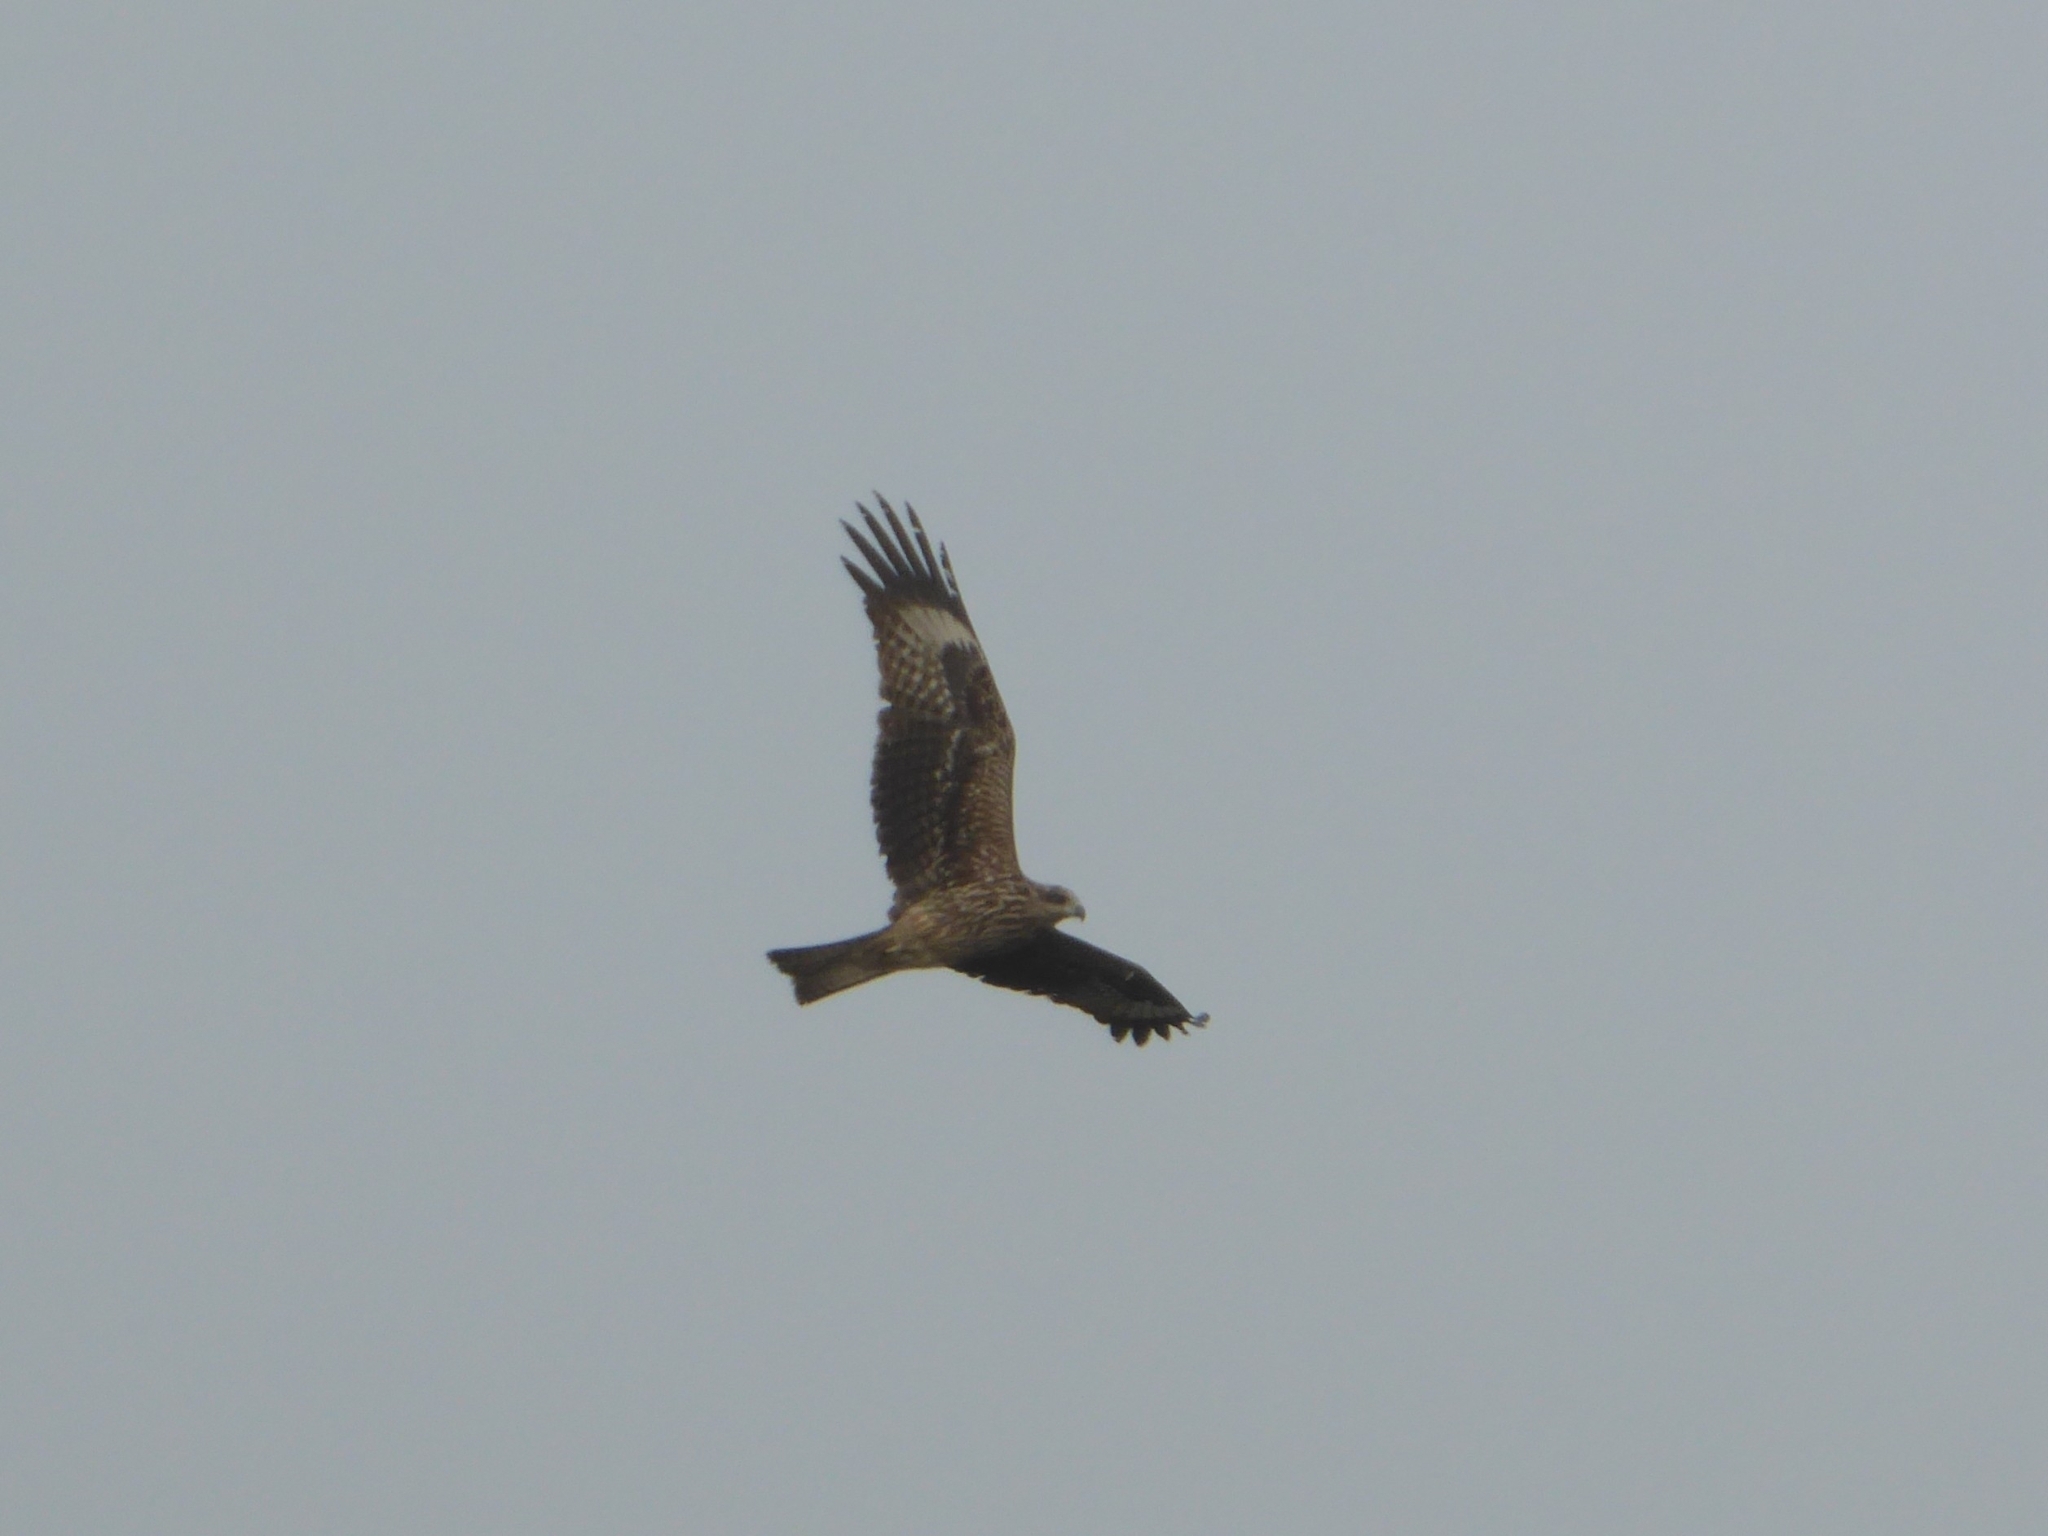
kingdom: Animalia
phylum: Chordata
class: Aves
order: Accipitriformes
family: Accipitridae
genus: Milvus
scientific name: Milvus migrans
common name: Black kite
